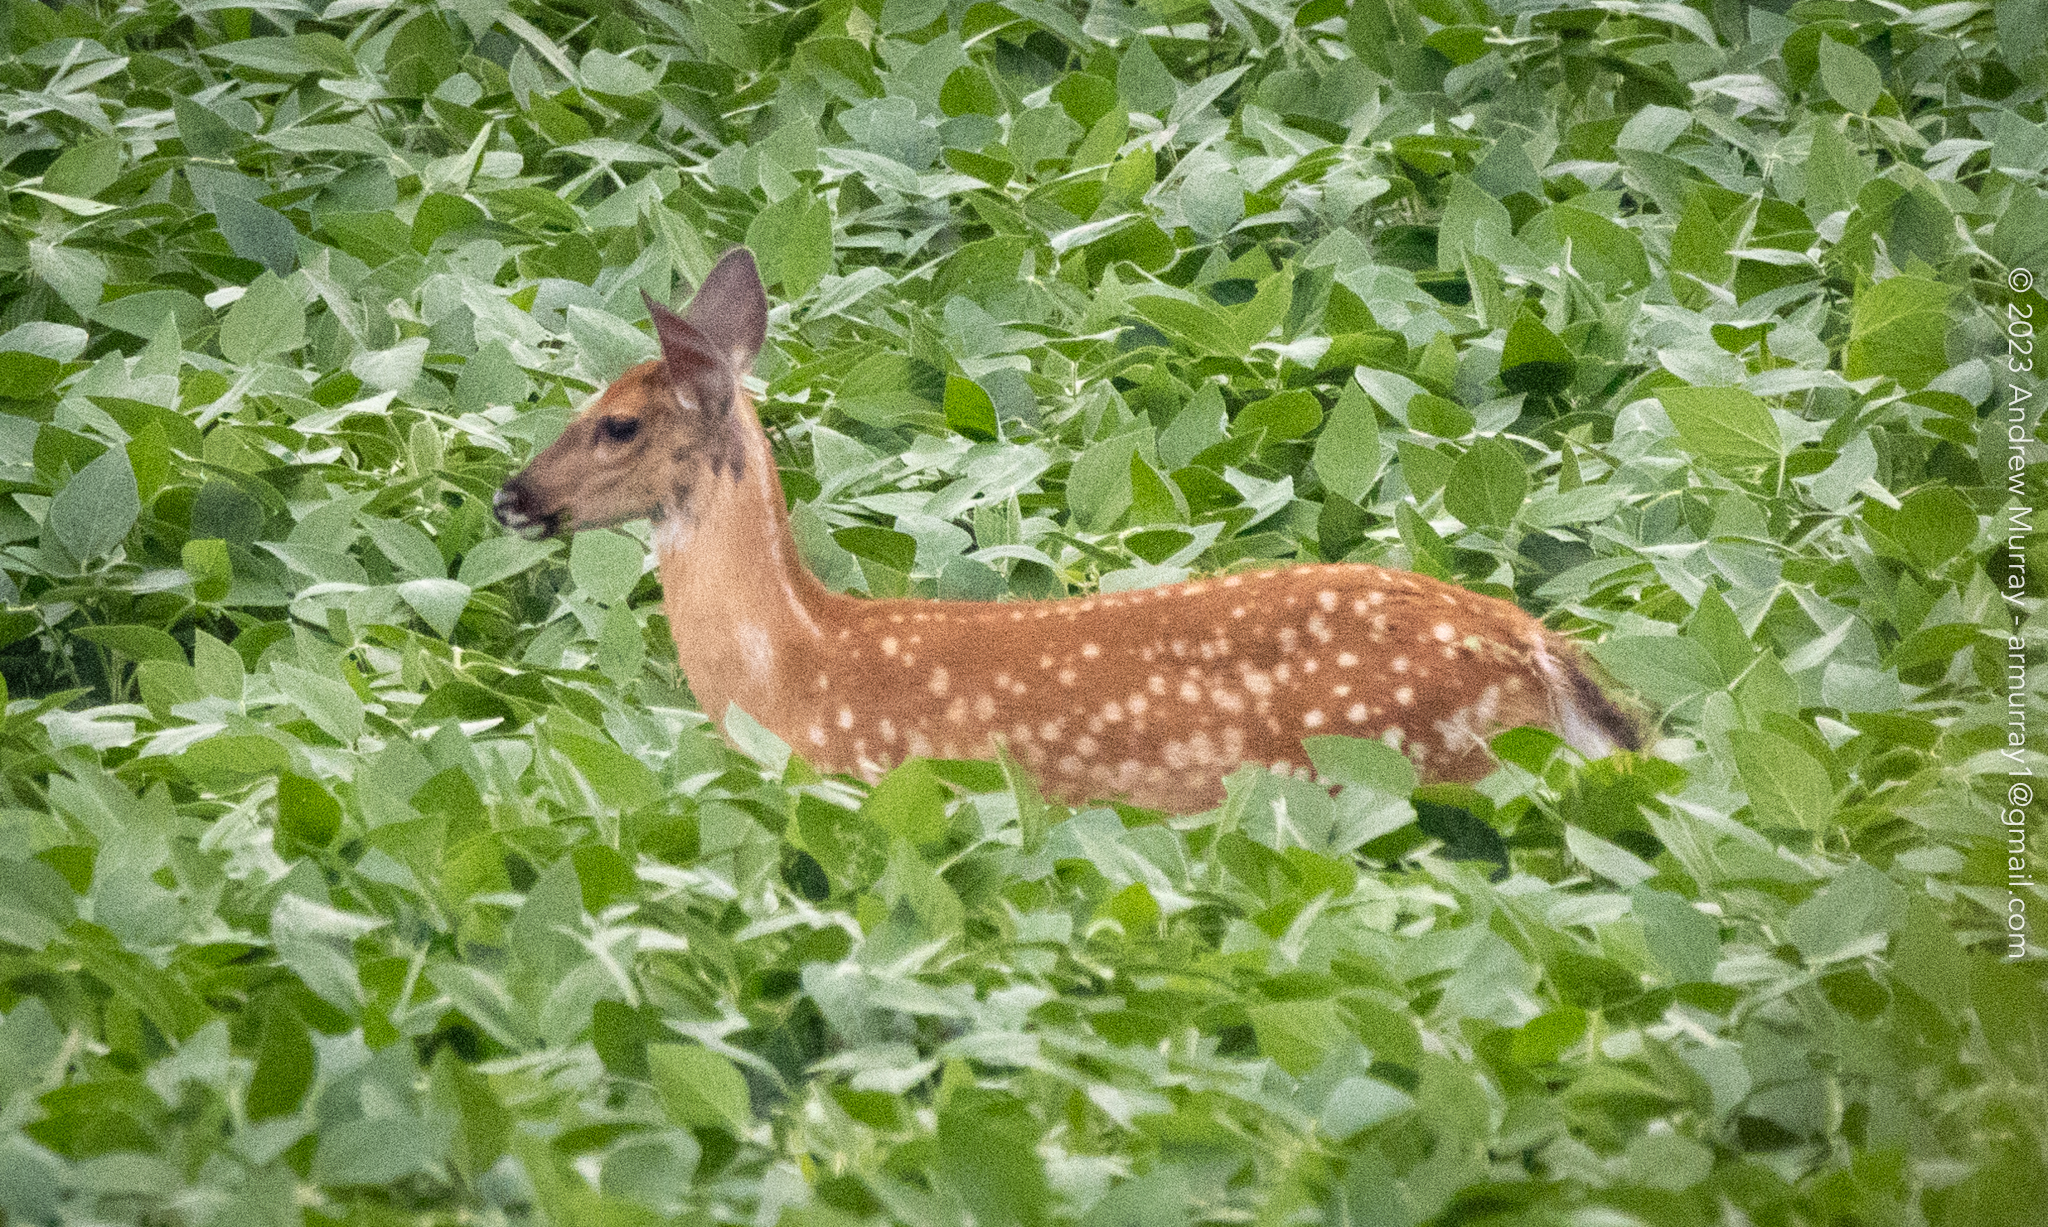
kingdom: Animalia
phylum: Chordata
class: Mammalia
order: Artiodactyla
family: Cervidae
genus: Odocoileus
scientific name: Odocoileus virginianus
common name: White-tailed deer
